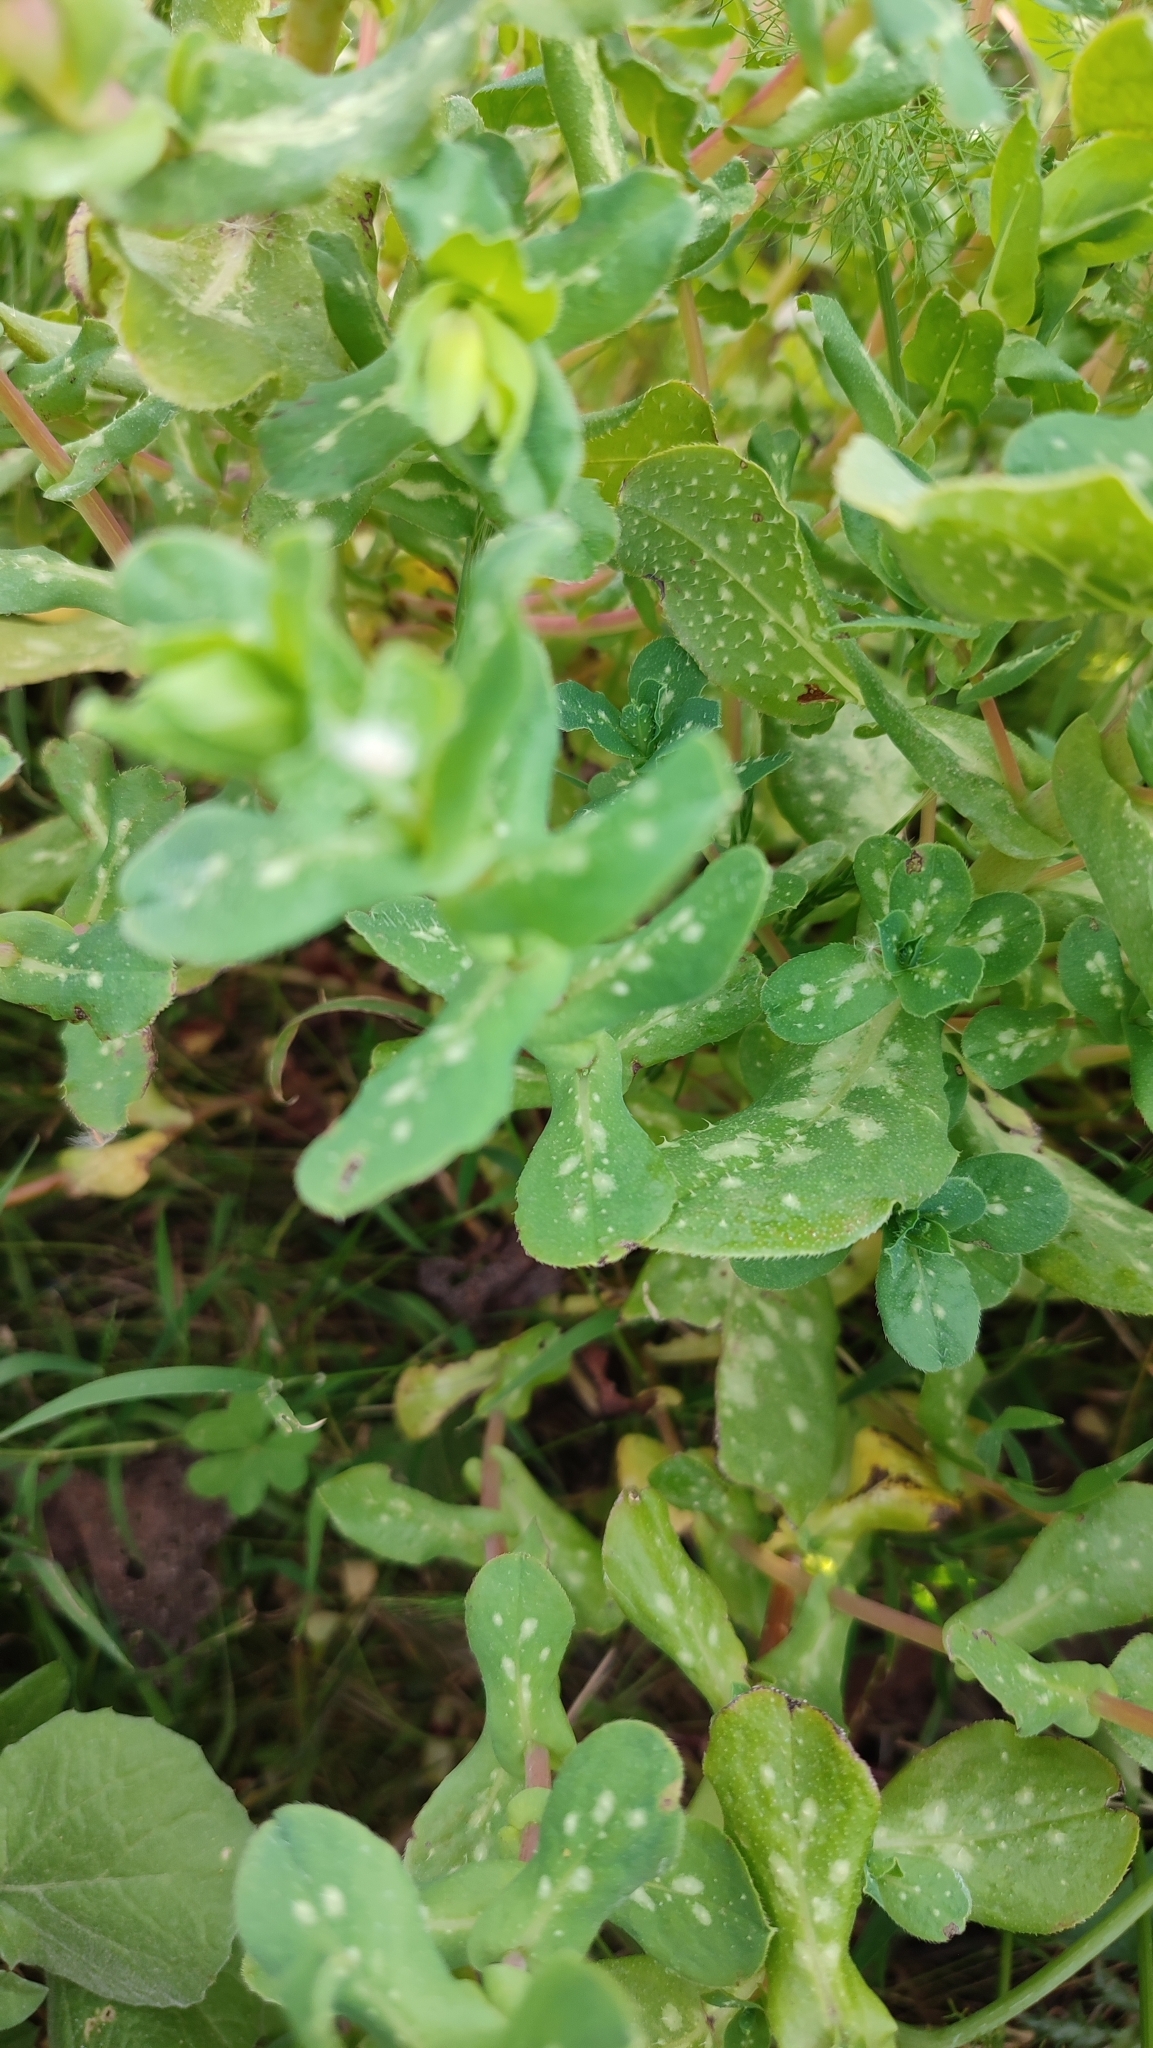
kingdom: Plantae
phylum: Tracheophyta
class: Magnoliopsida
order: Boraginales
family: Boraginaceae
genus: Cerinthe
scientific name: Cerinthe major
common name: Greater honeywort
